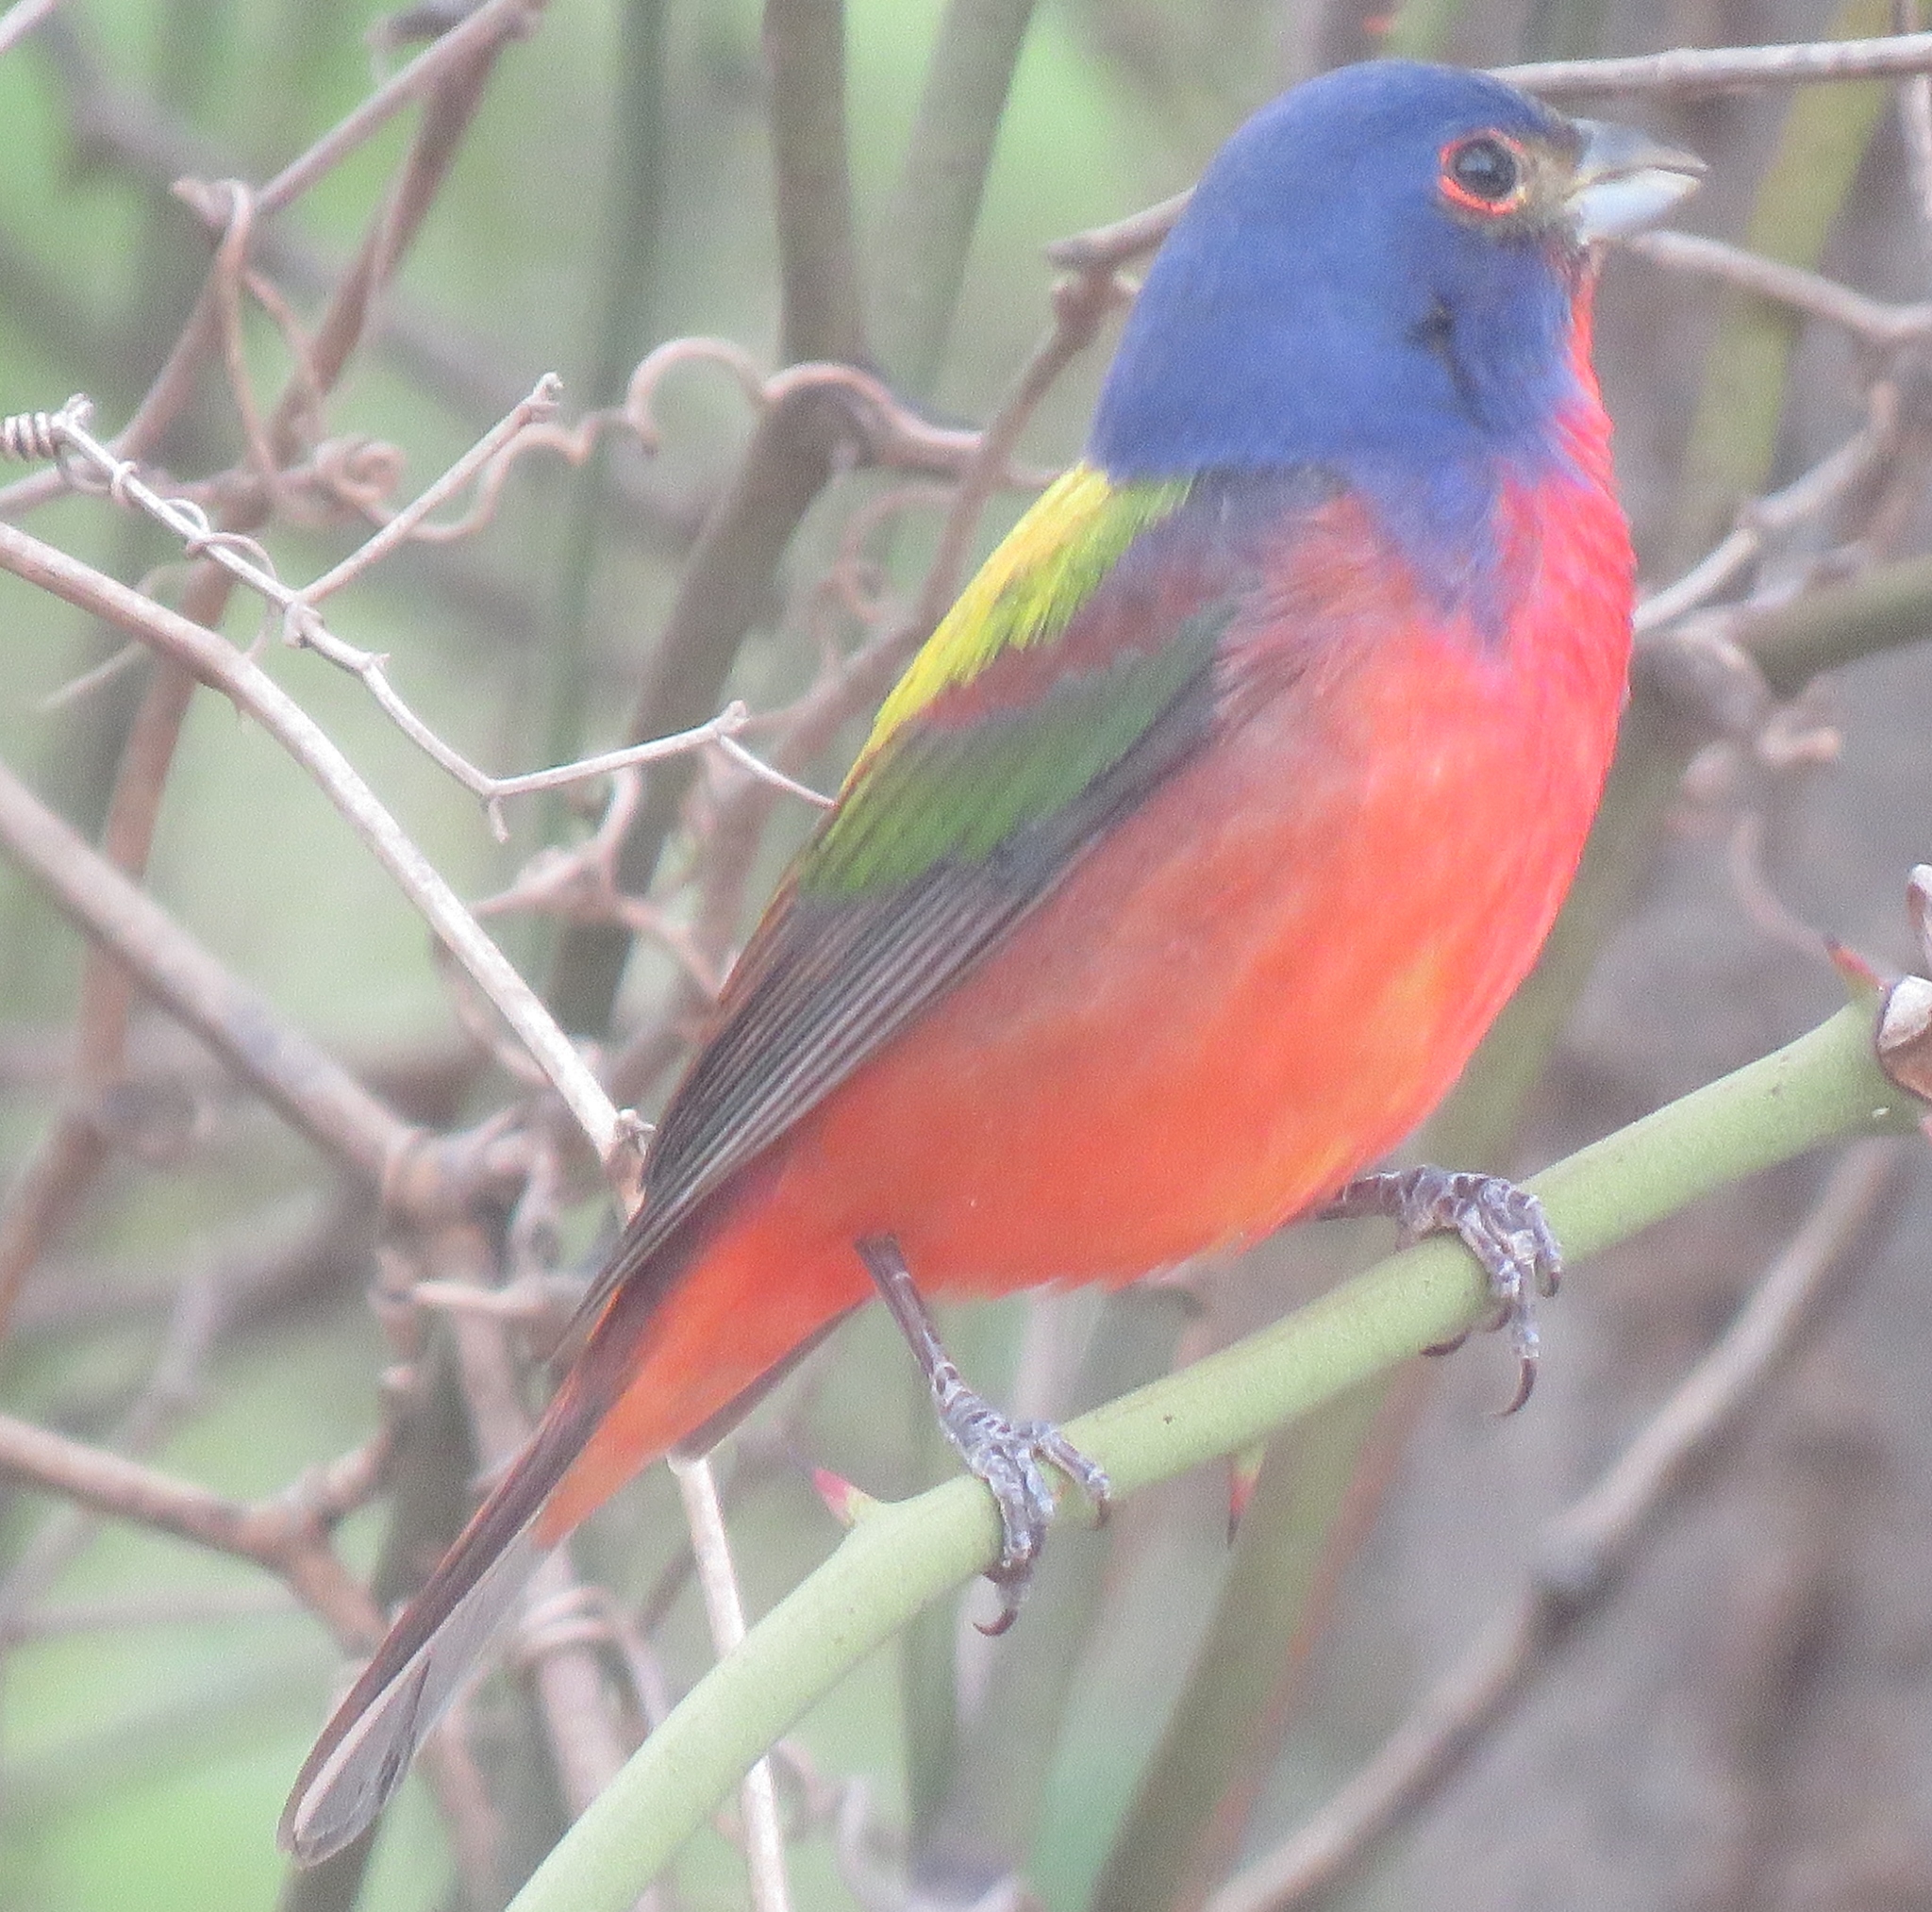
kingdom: Animalia
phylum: Chordata
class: Aves
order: Passeriformes
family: Cardinalidae
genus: Passerina
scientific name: Passerina ciris
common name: Painted bunting
